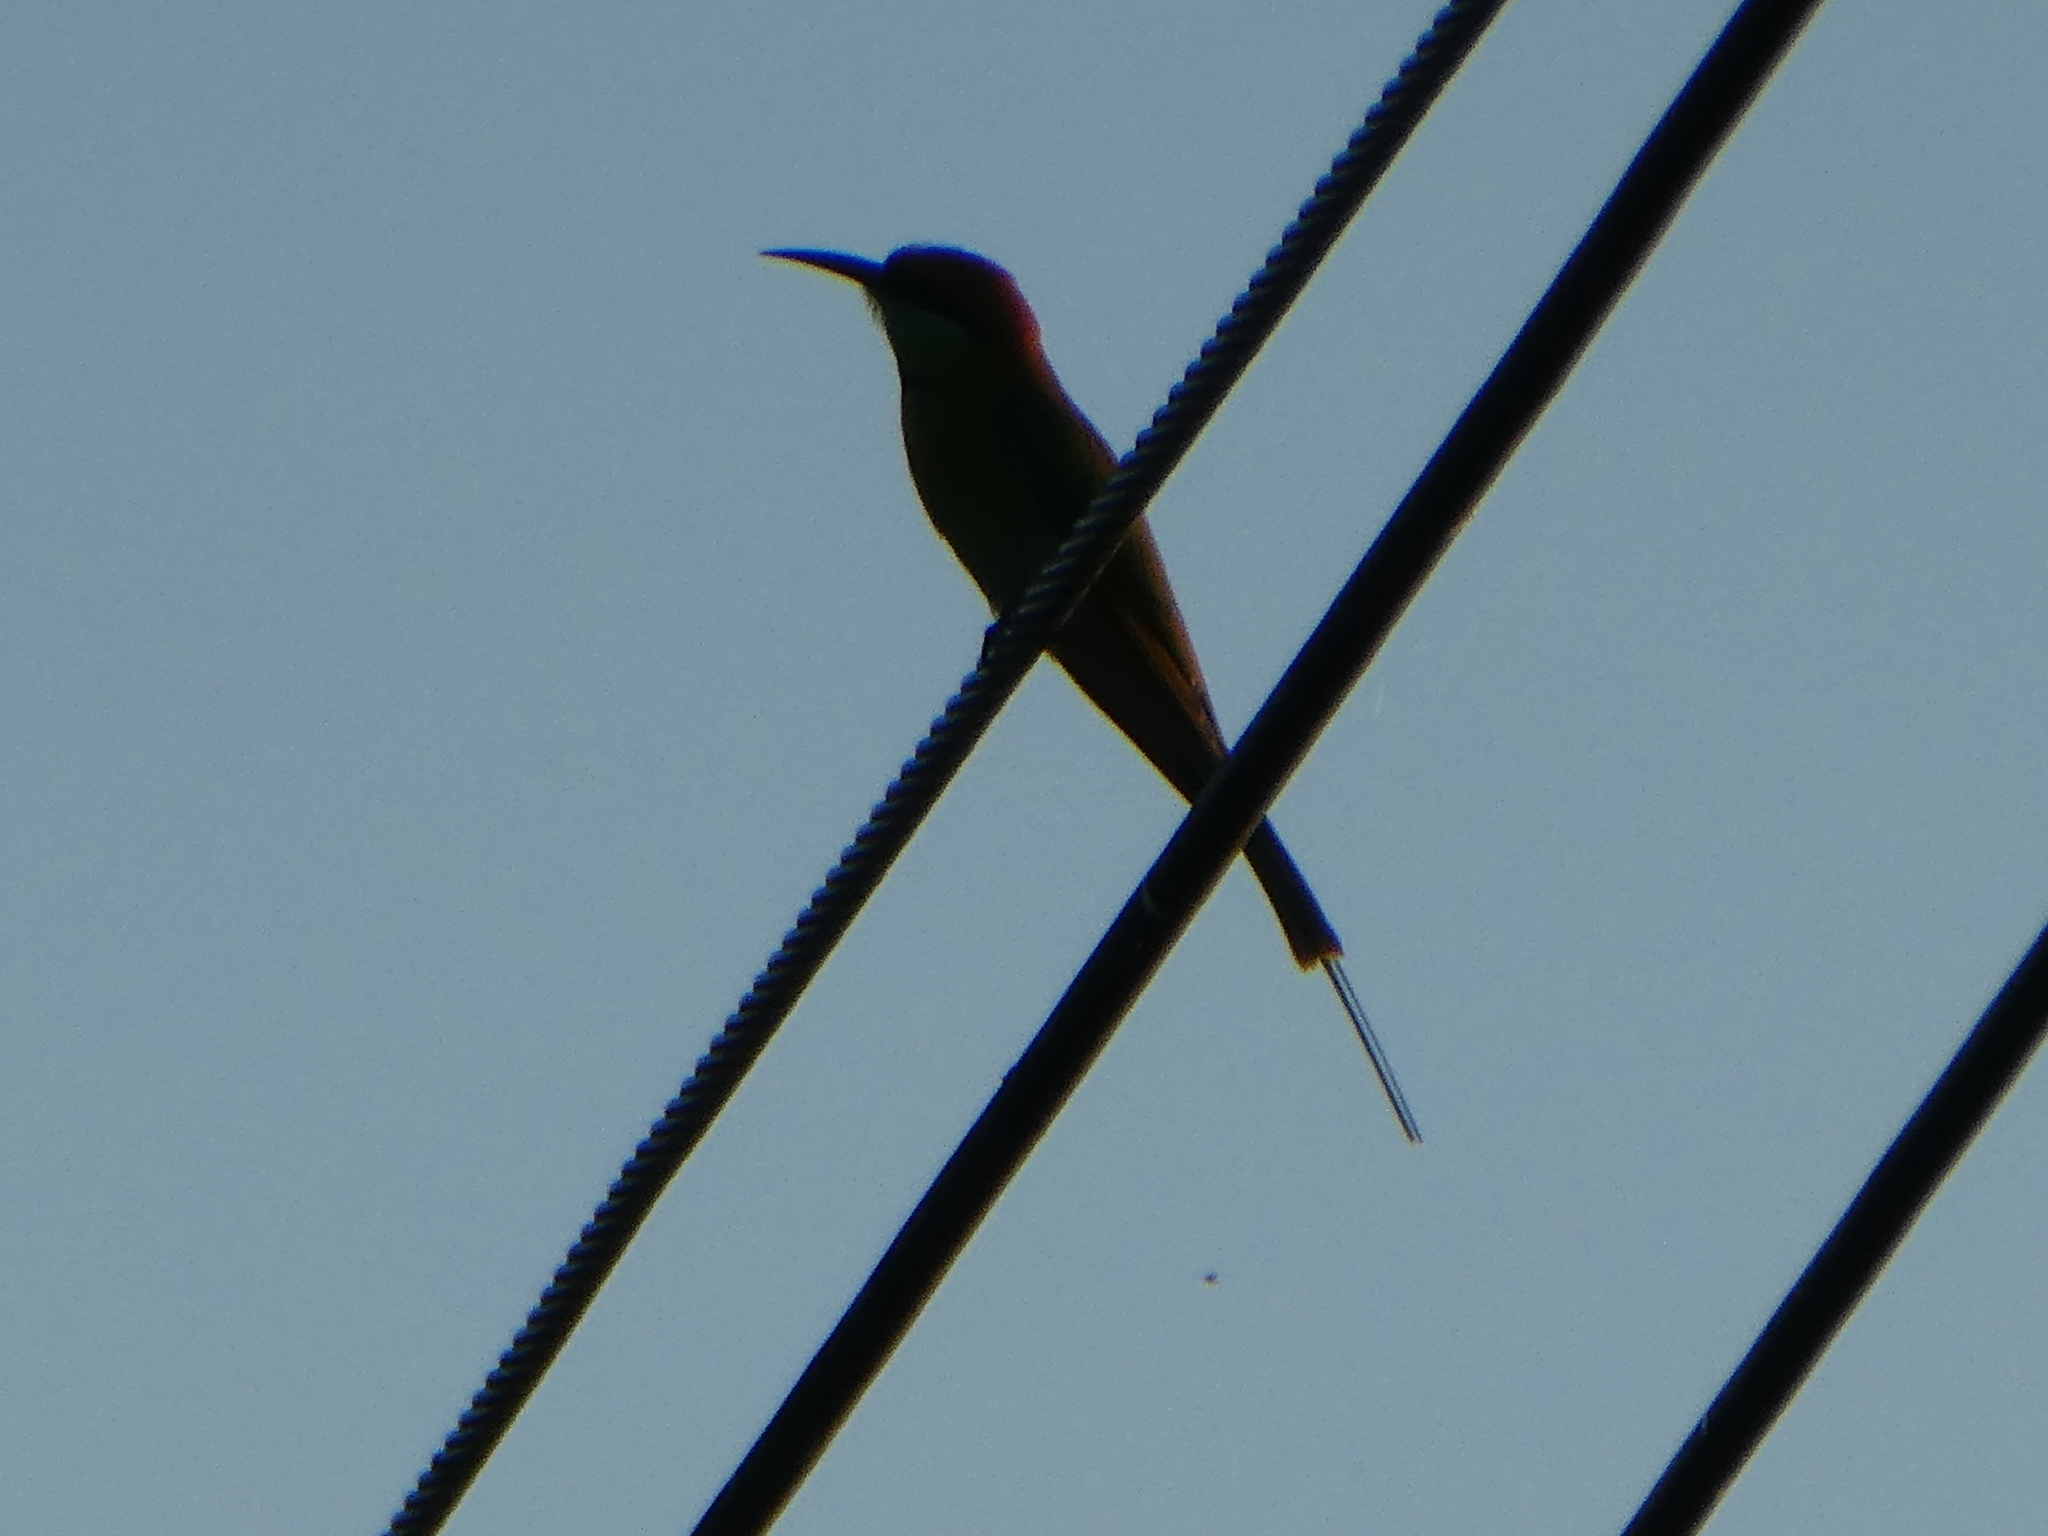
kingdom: Animalia
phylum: Chordata
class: Aves
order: Coraciiformes
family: Meropidae
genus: Merops
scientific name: Merops orientalis
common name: Green bee-eater
